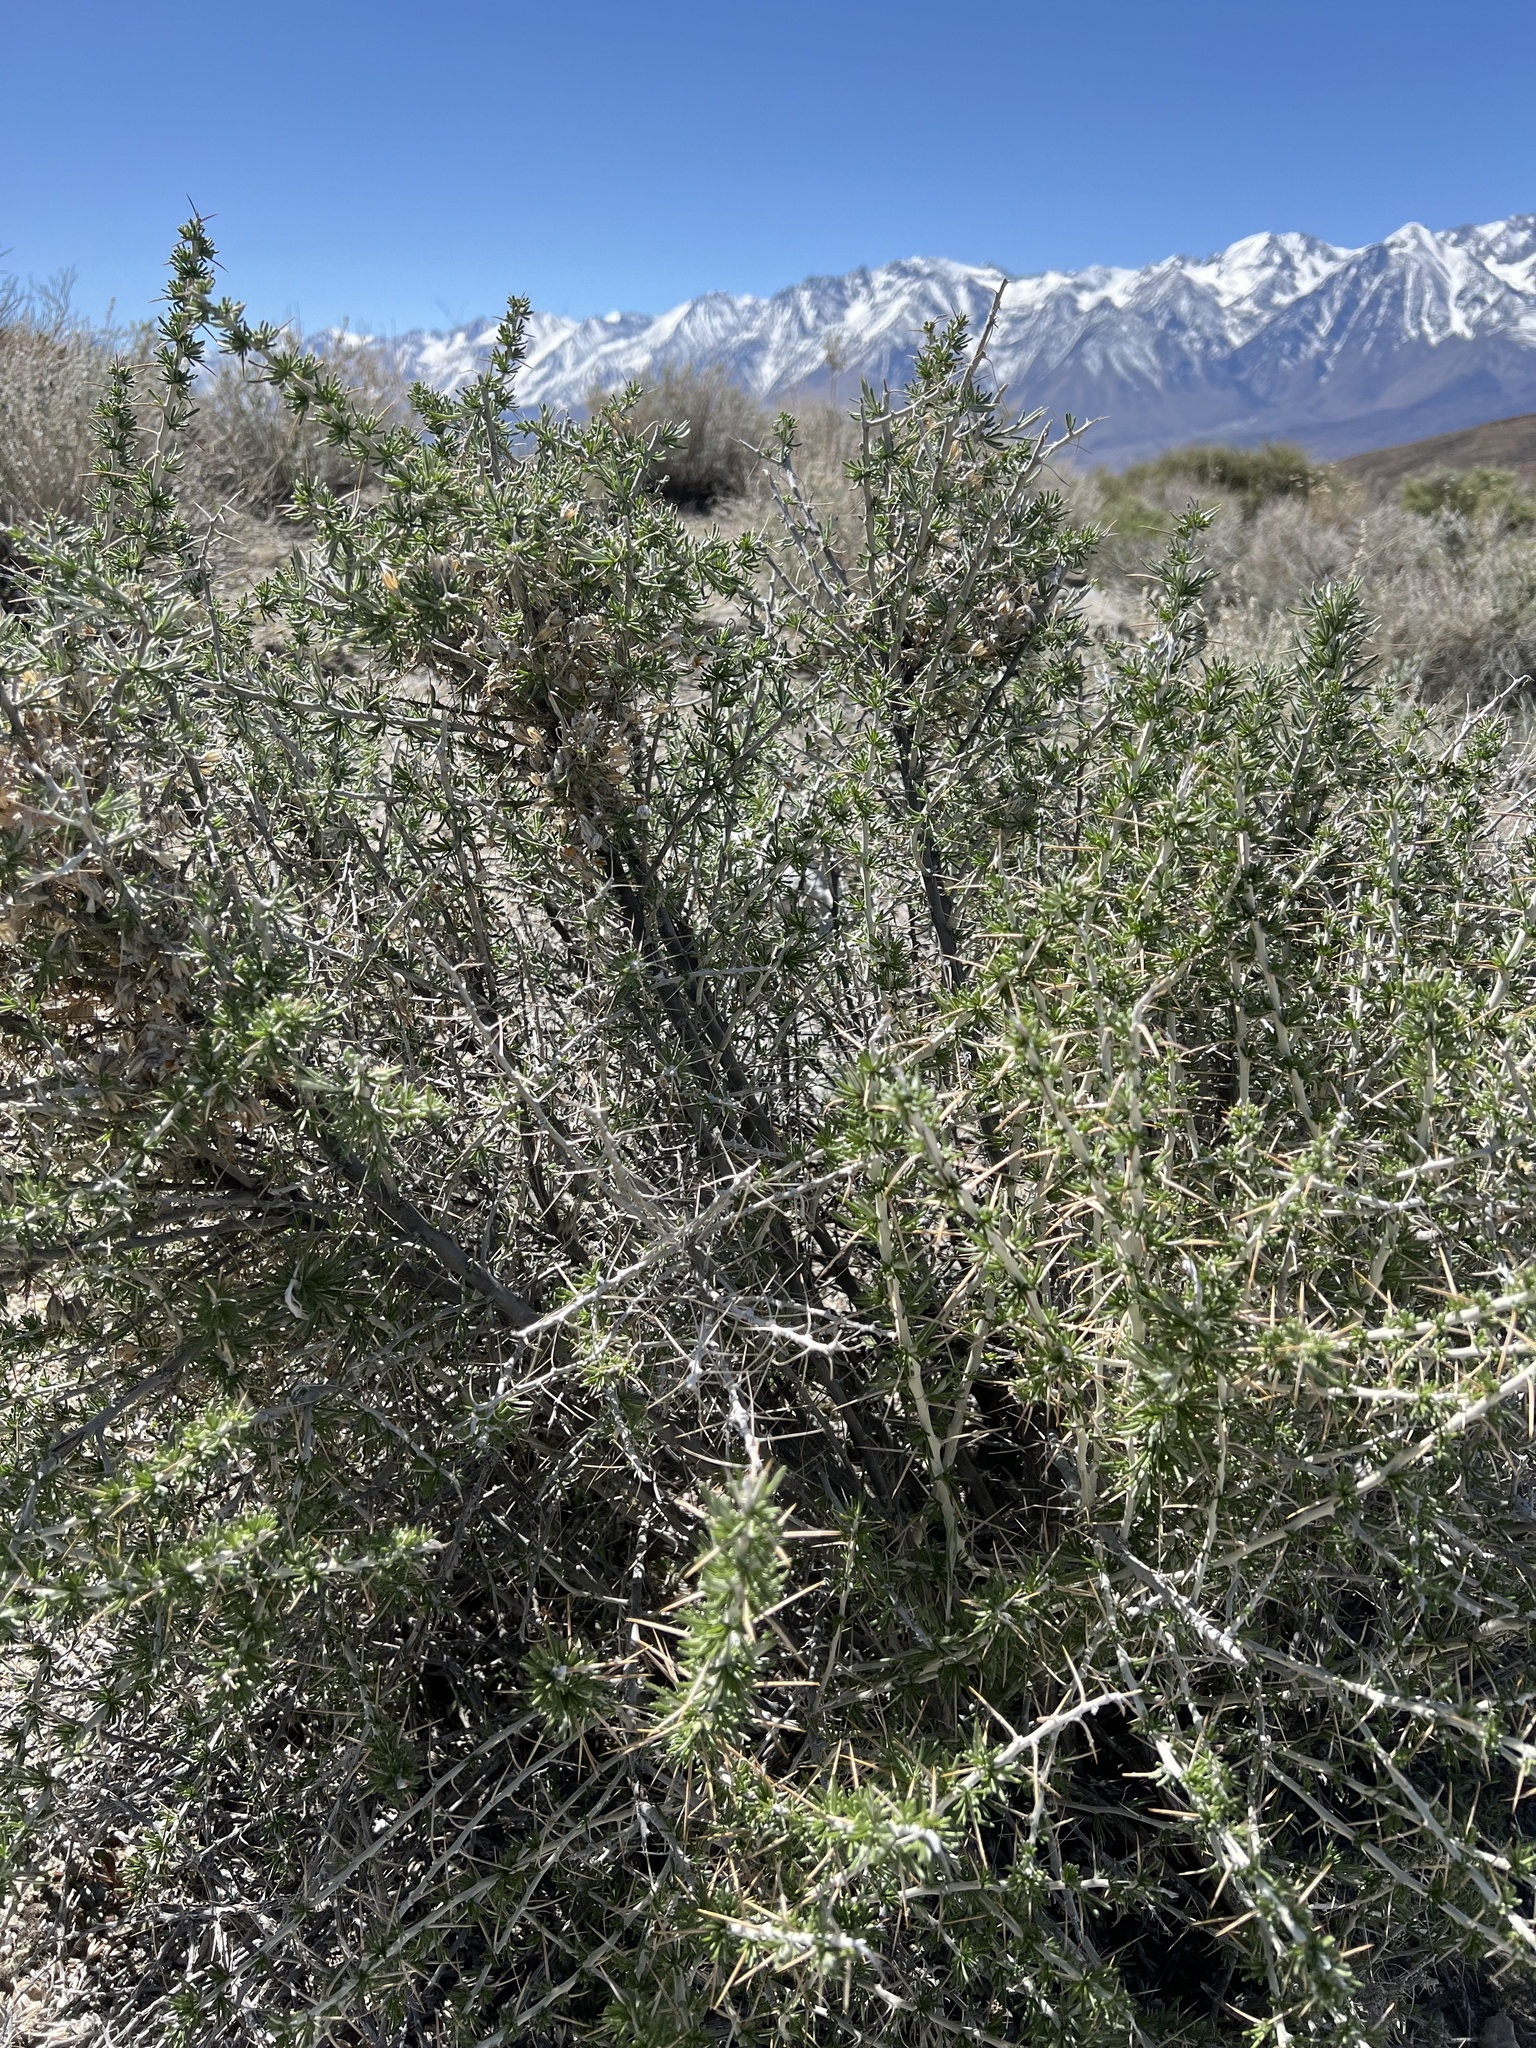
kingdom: Plantae
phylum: Tracheophyta
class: Magnoliopsida
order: Asterales
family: Asteraceae
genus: Tetradymia
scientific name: Tetradymia axillaris
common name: Long-spine horsebrush
